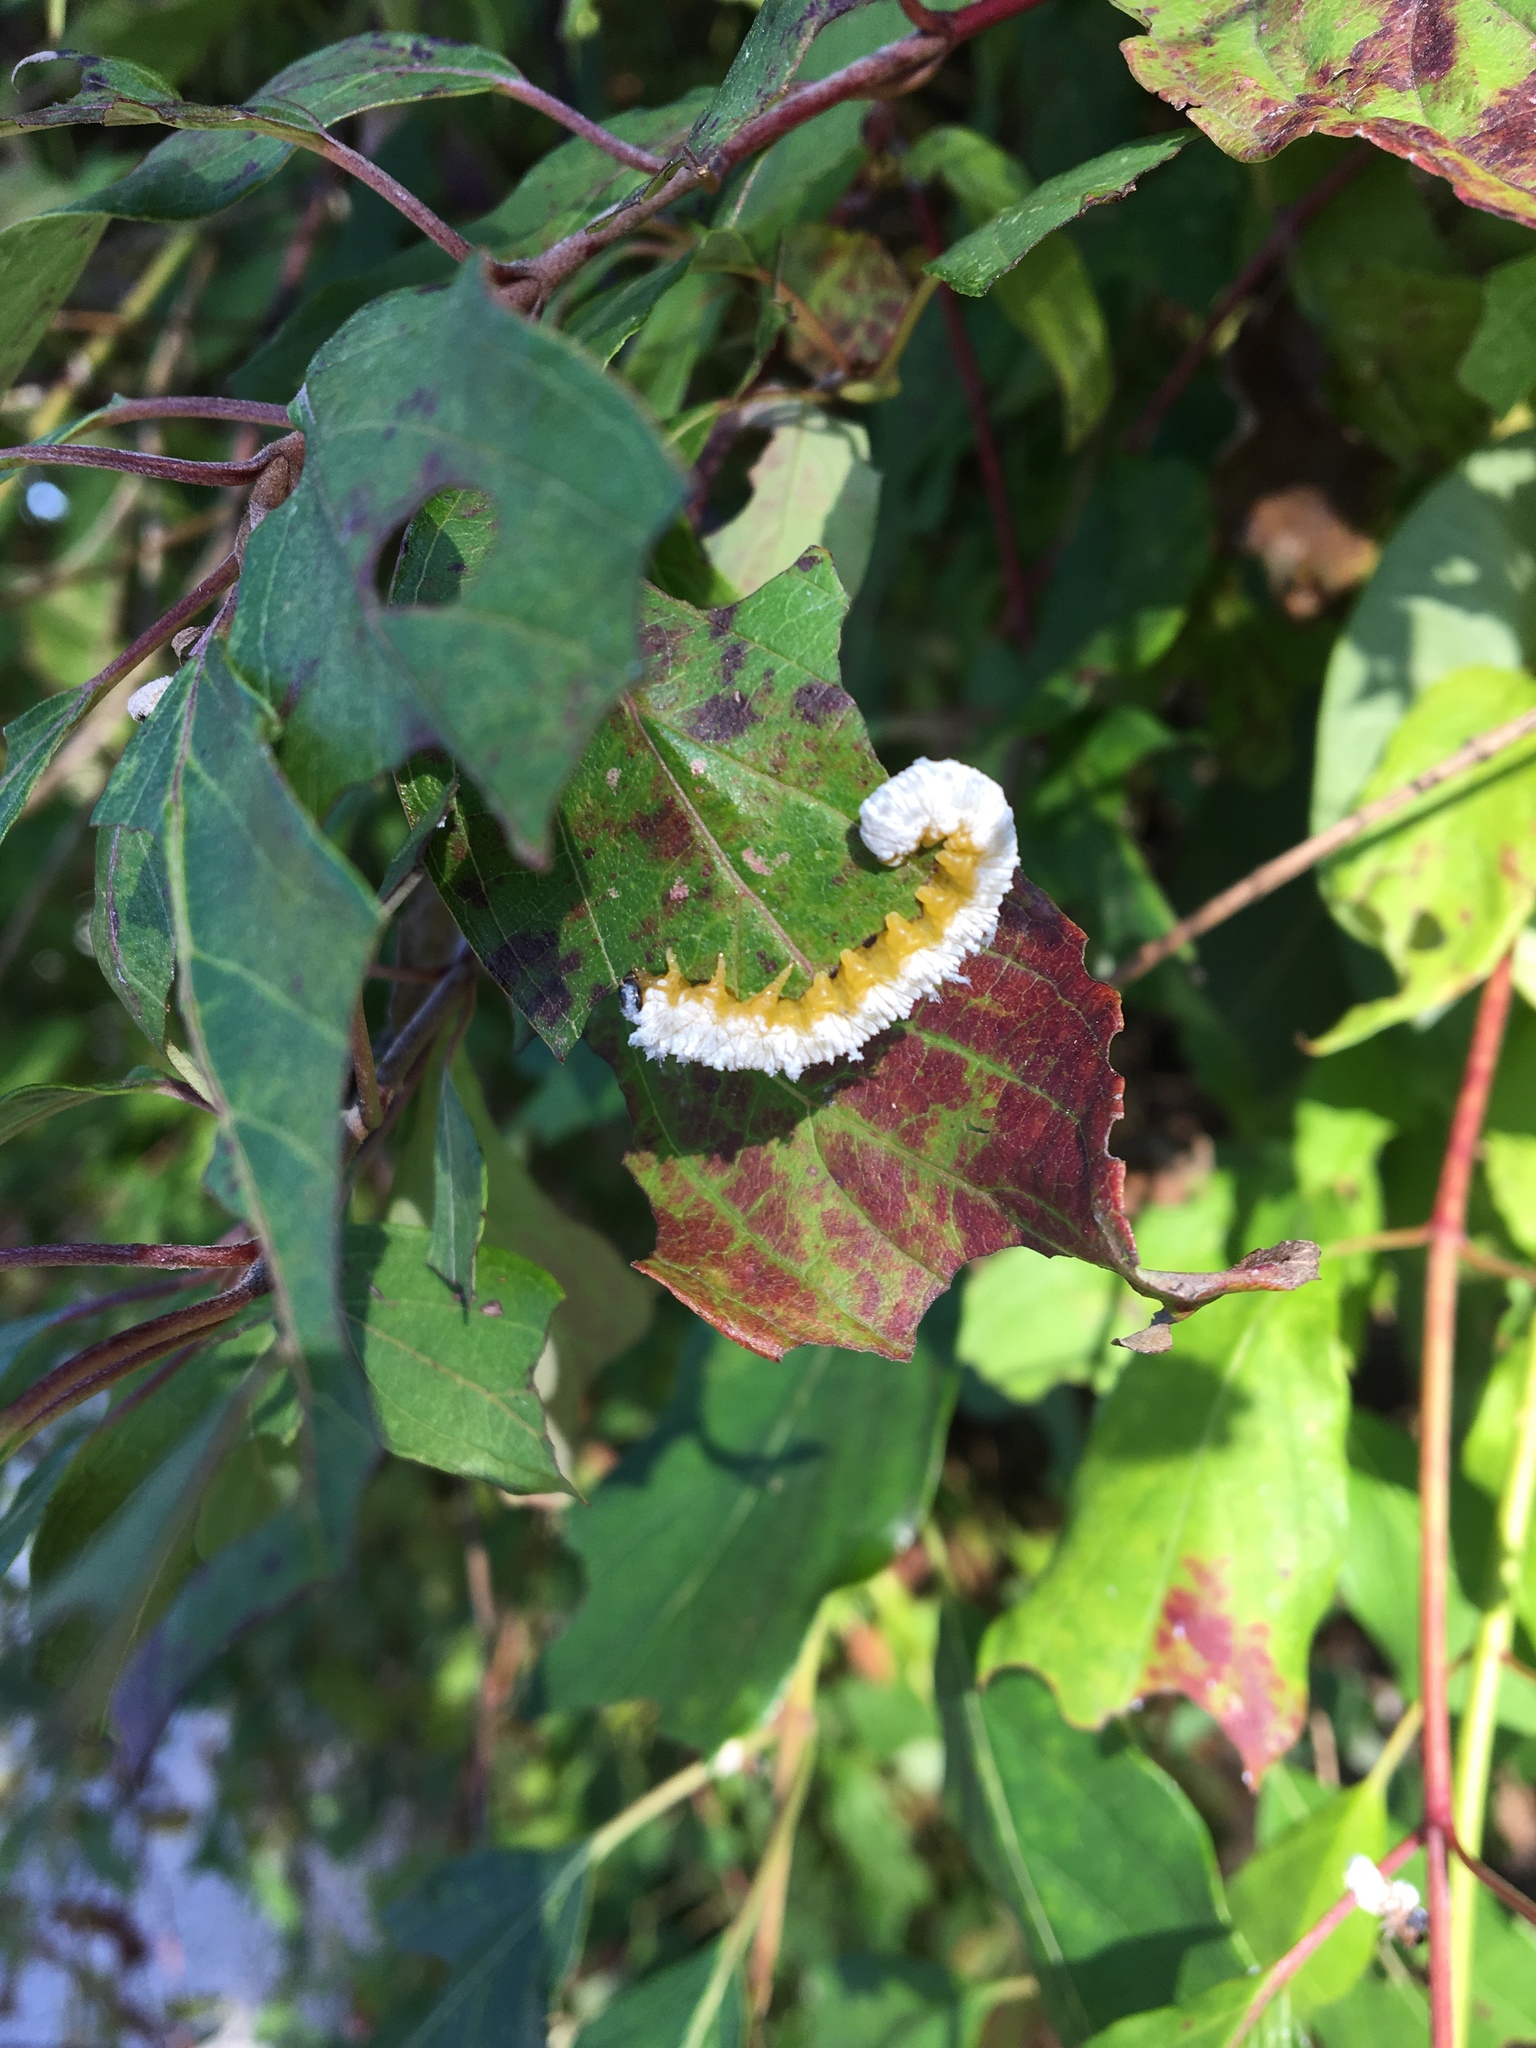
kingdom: Animalia
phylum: Arthropoda
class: Insecta
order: Hymenoptera
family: Tenthredinidae
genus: Macremphytus
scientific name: Macremphytus testaceus
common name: Dogwood sawfly
